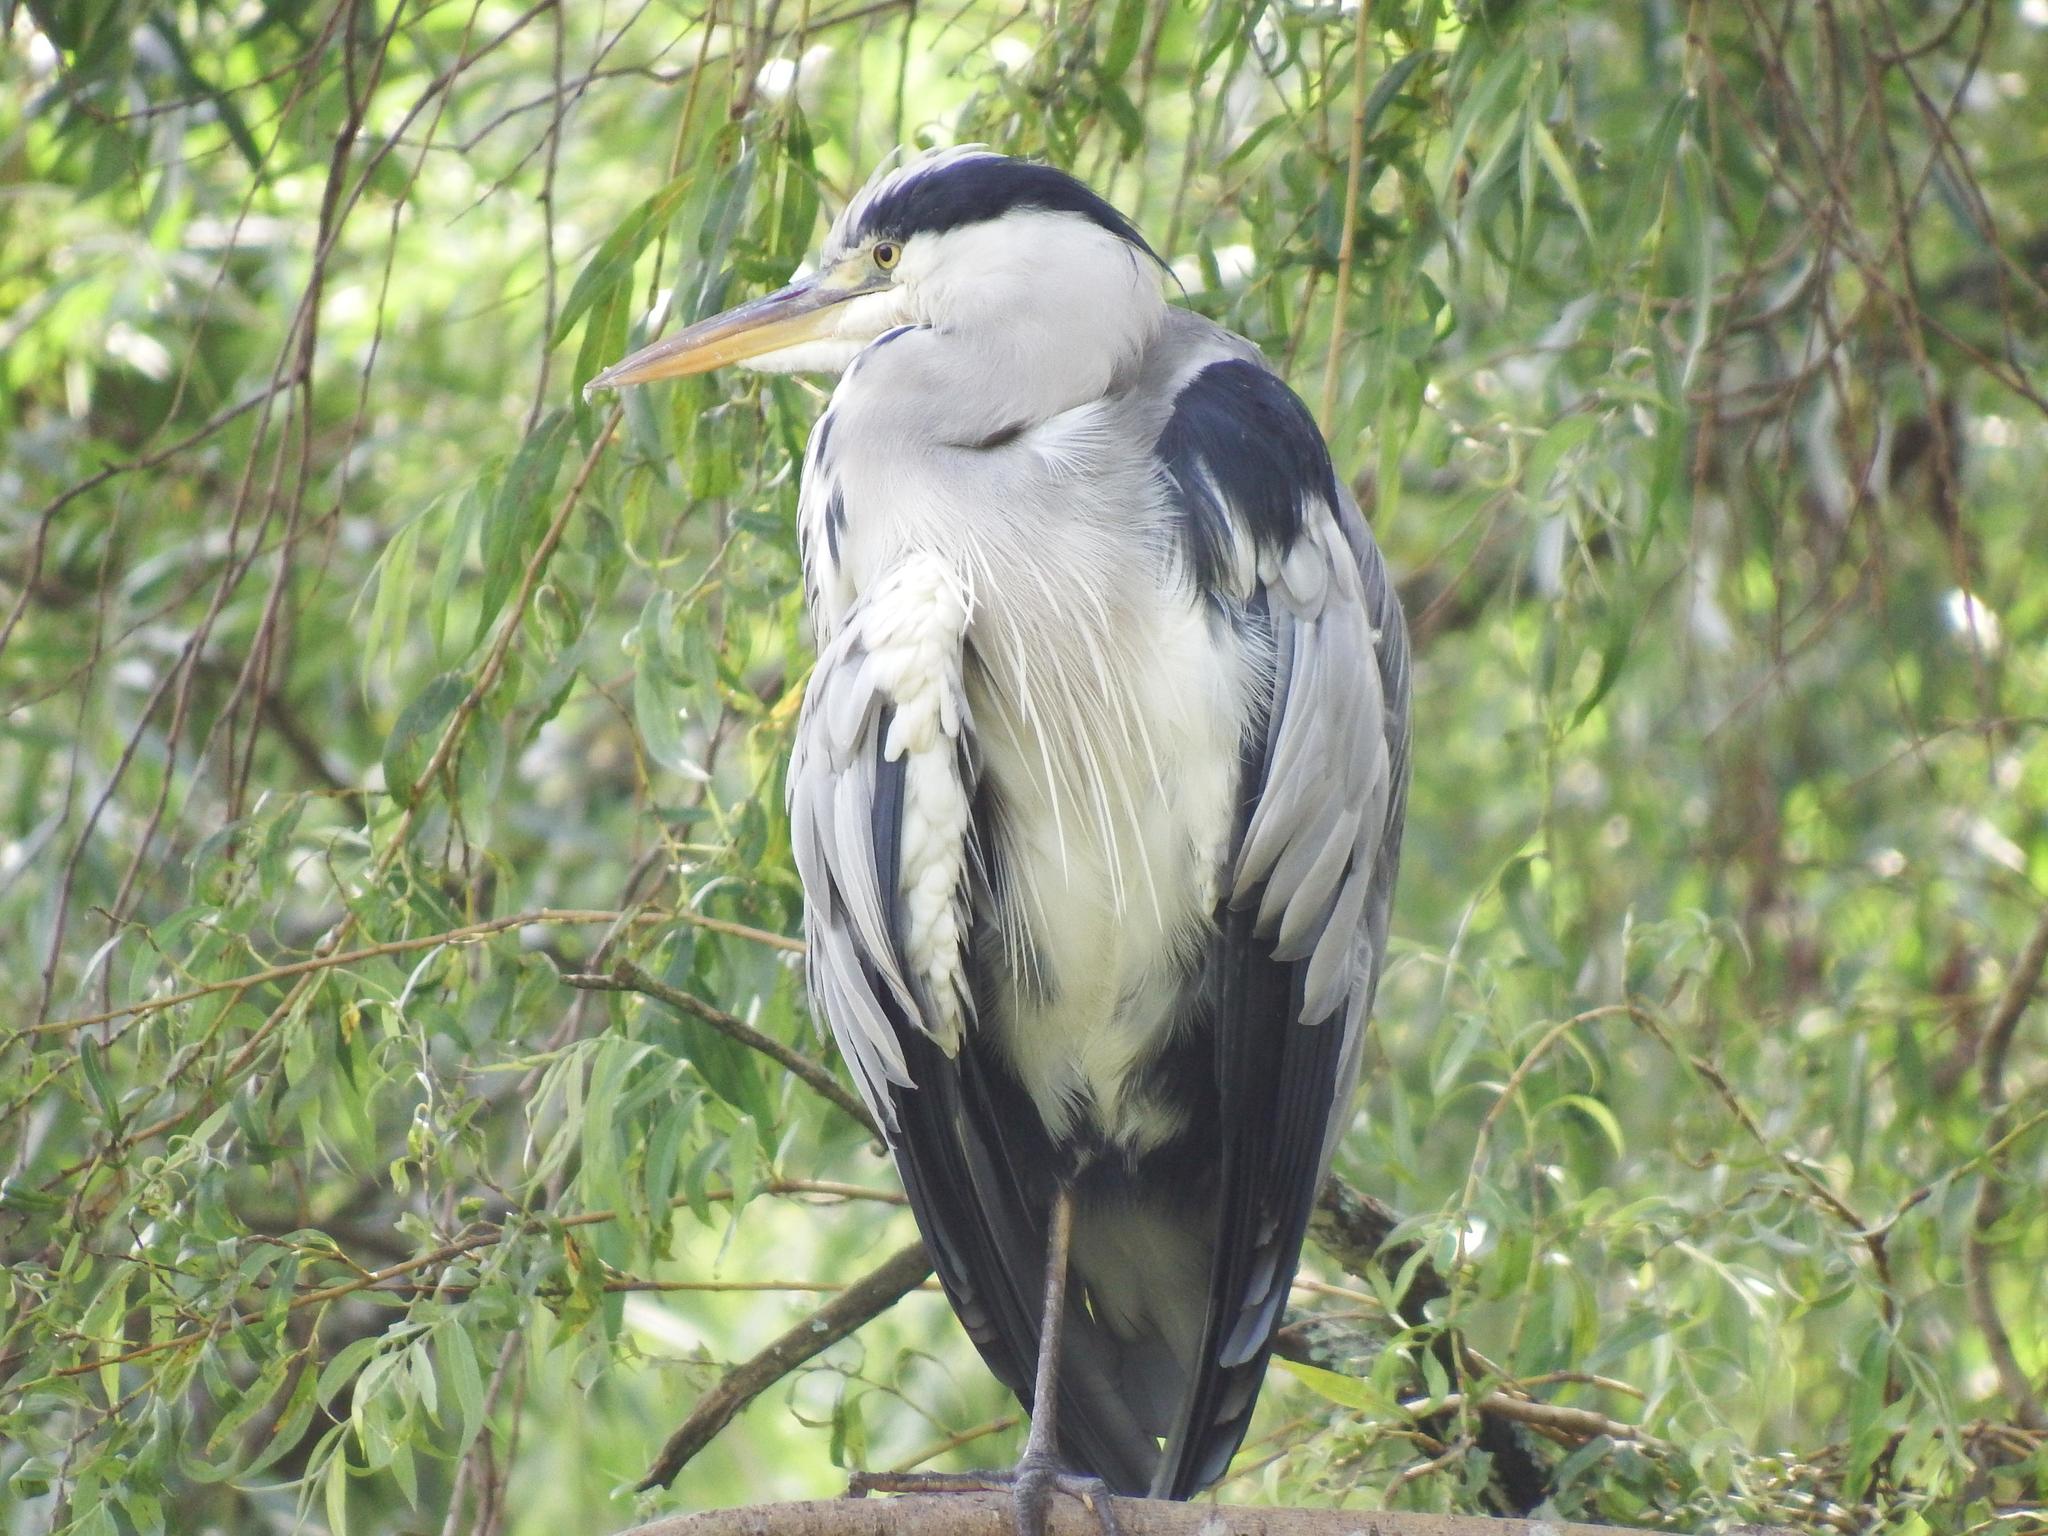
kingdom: Animalia
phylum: Chordata
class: Aves
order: Pelecaniformes
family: Ardeidae
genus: Ardea
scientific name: Ardea cinerea
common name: Grey heron
